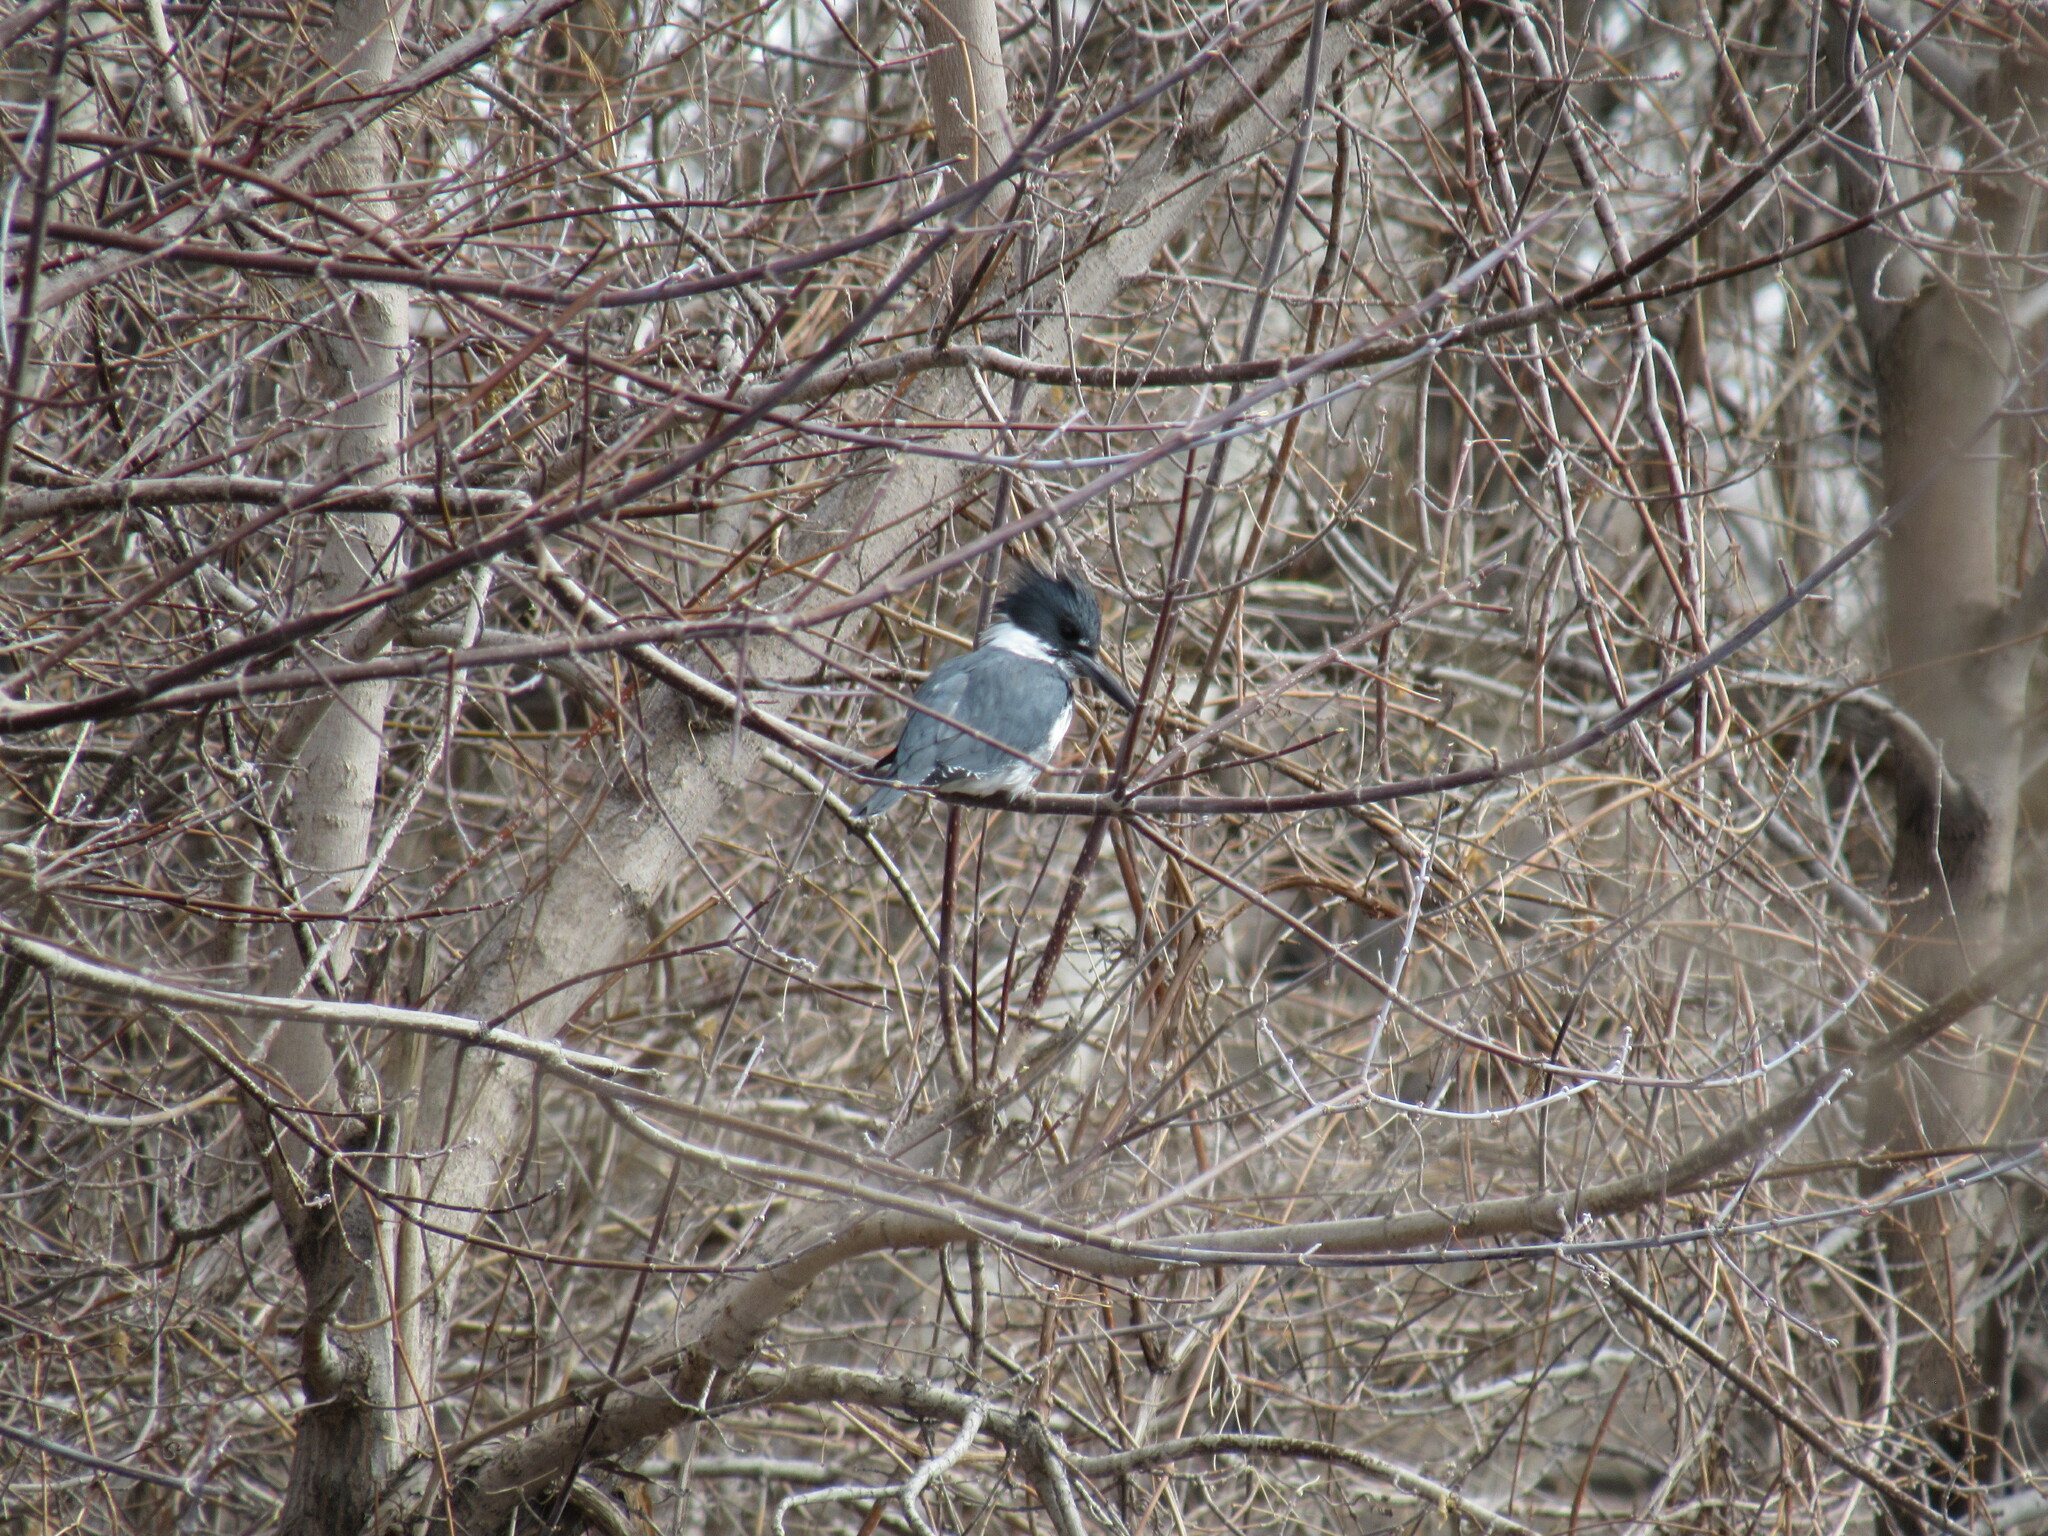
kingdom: Animalia
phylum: Chordata
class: Aves
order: Coraciiformes
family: Alcedinidae
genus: Megaceryle
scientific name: Megaceryle alcyon
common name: Belted kingfisher
